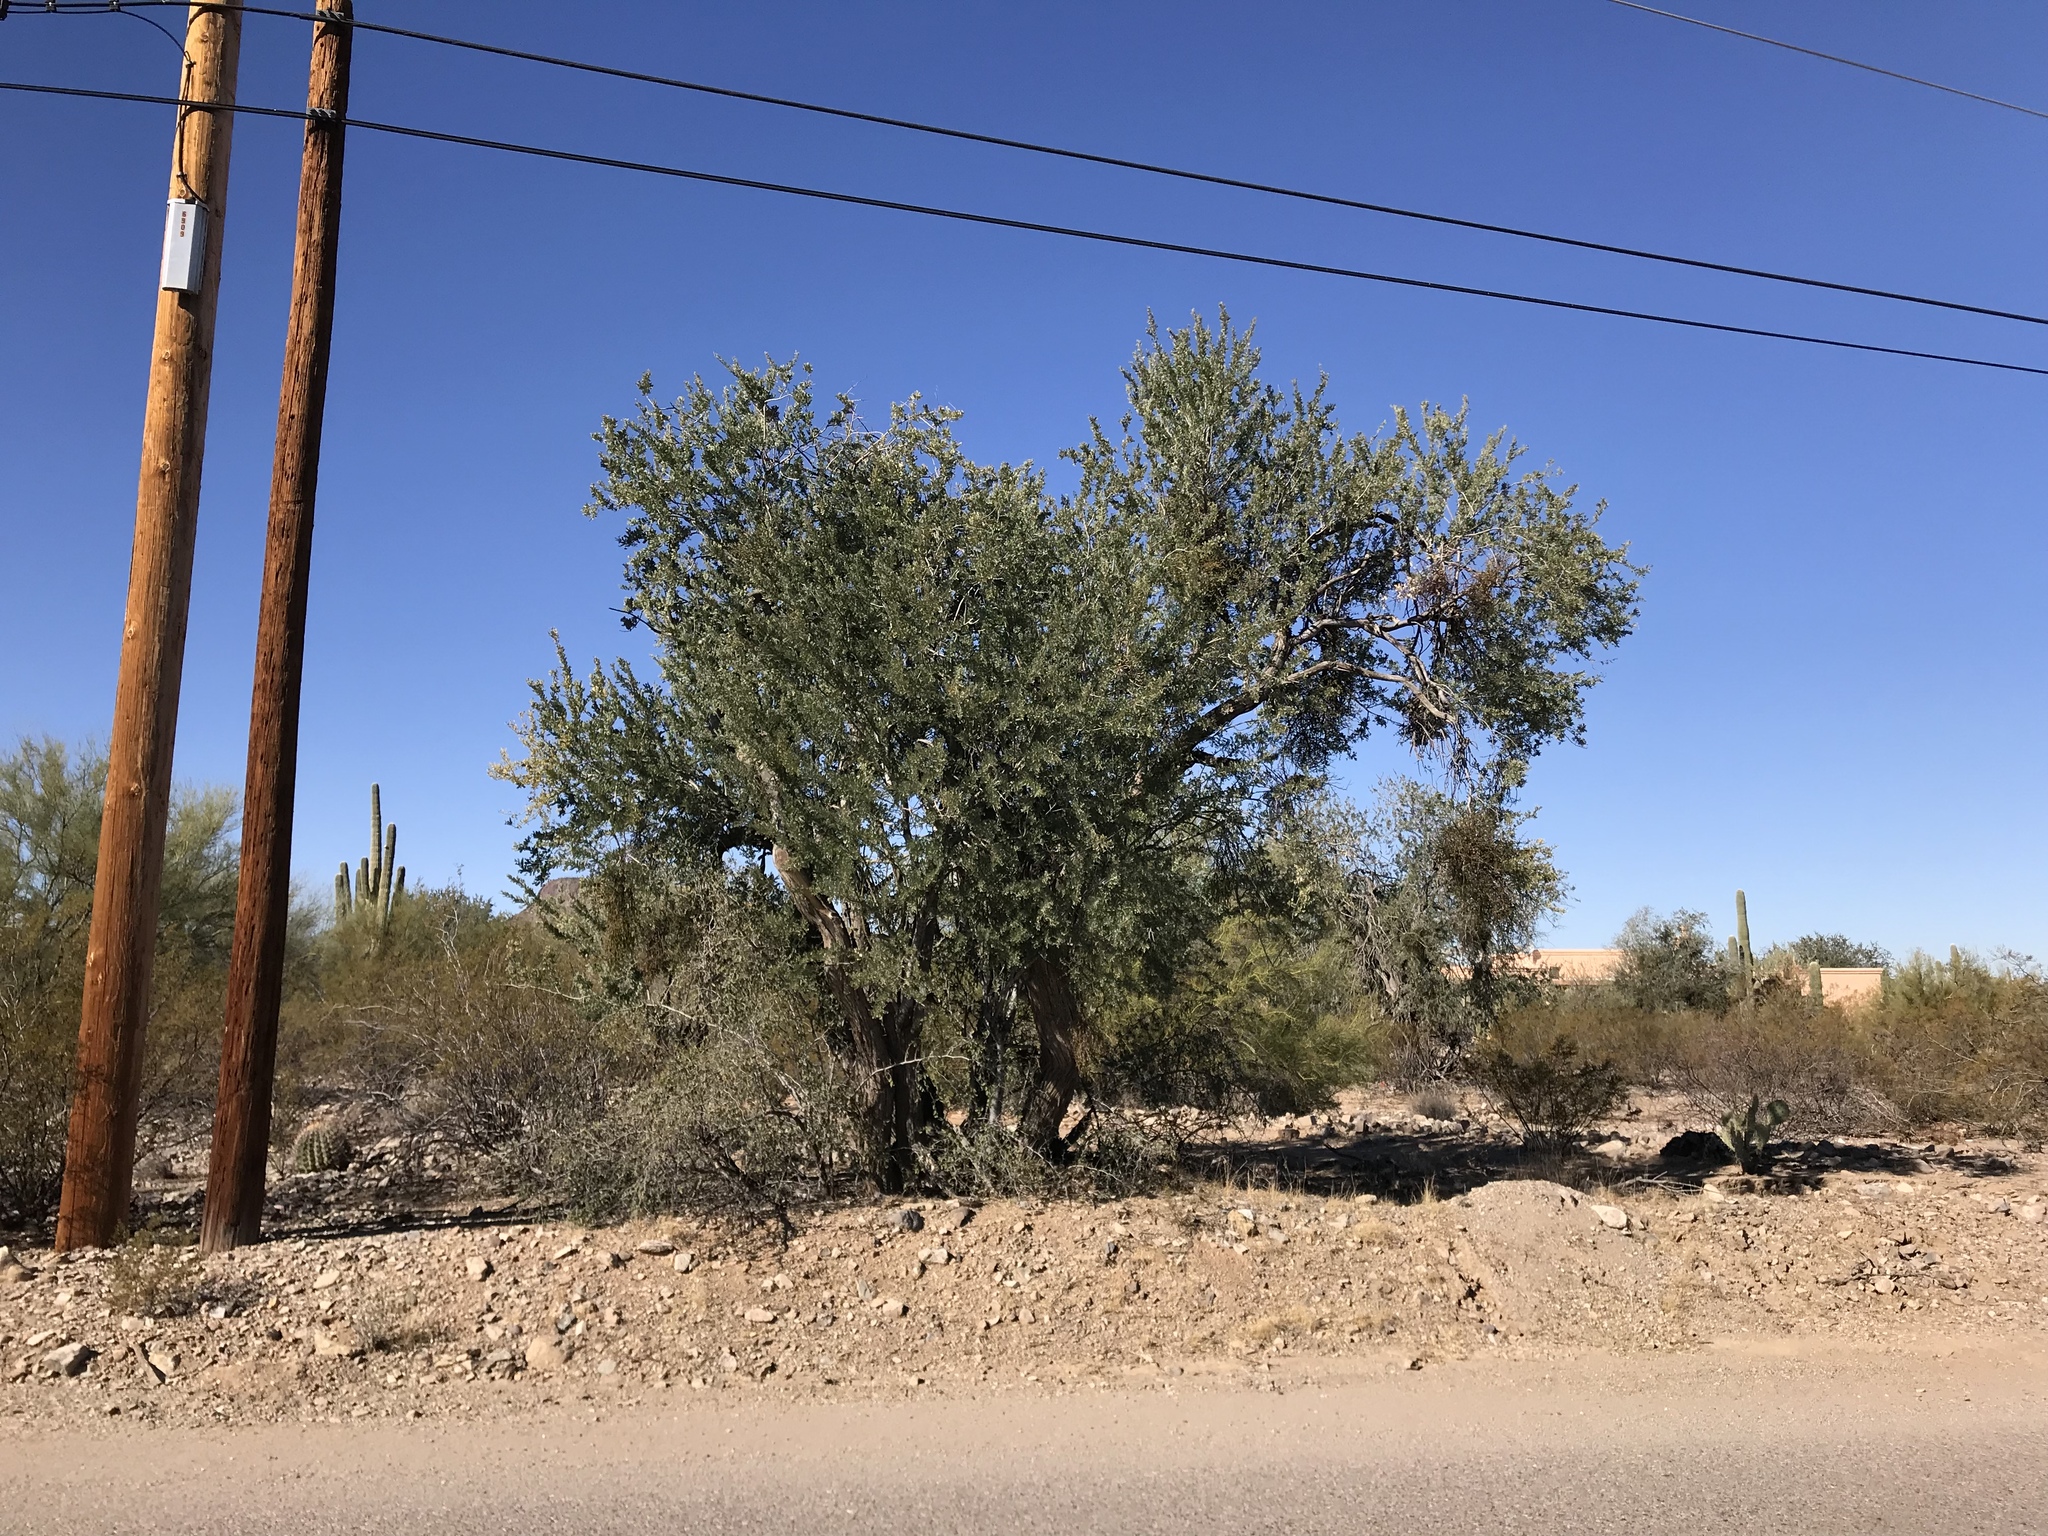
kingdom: Plantae
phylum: Tracheophyta
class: Magnoliopsida
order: Fabales
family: Fabaceae
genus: Olneya
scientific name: Olneya tesota
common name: Desert ironwood
